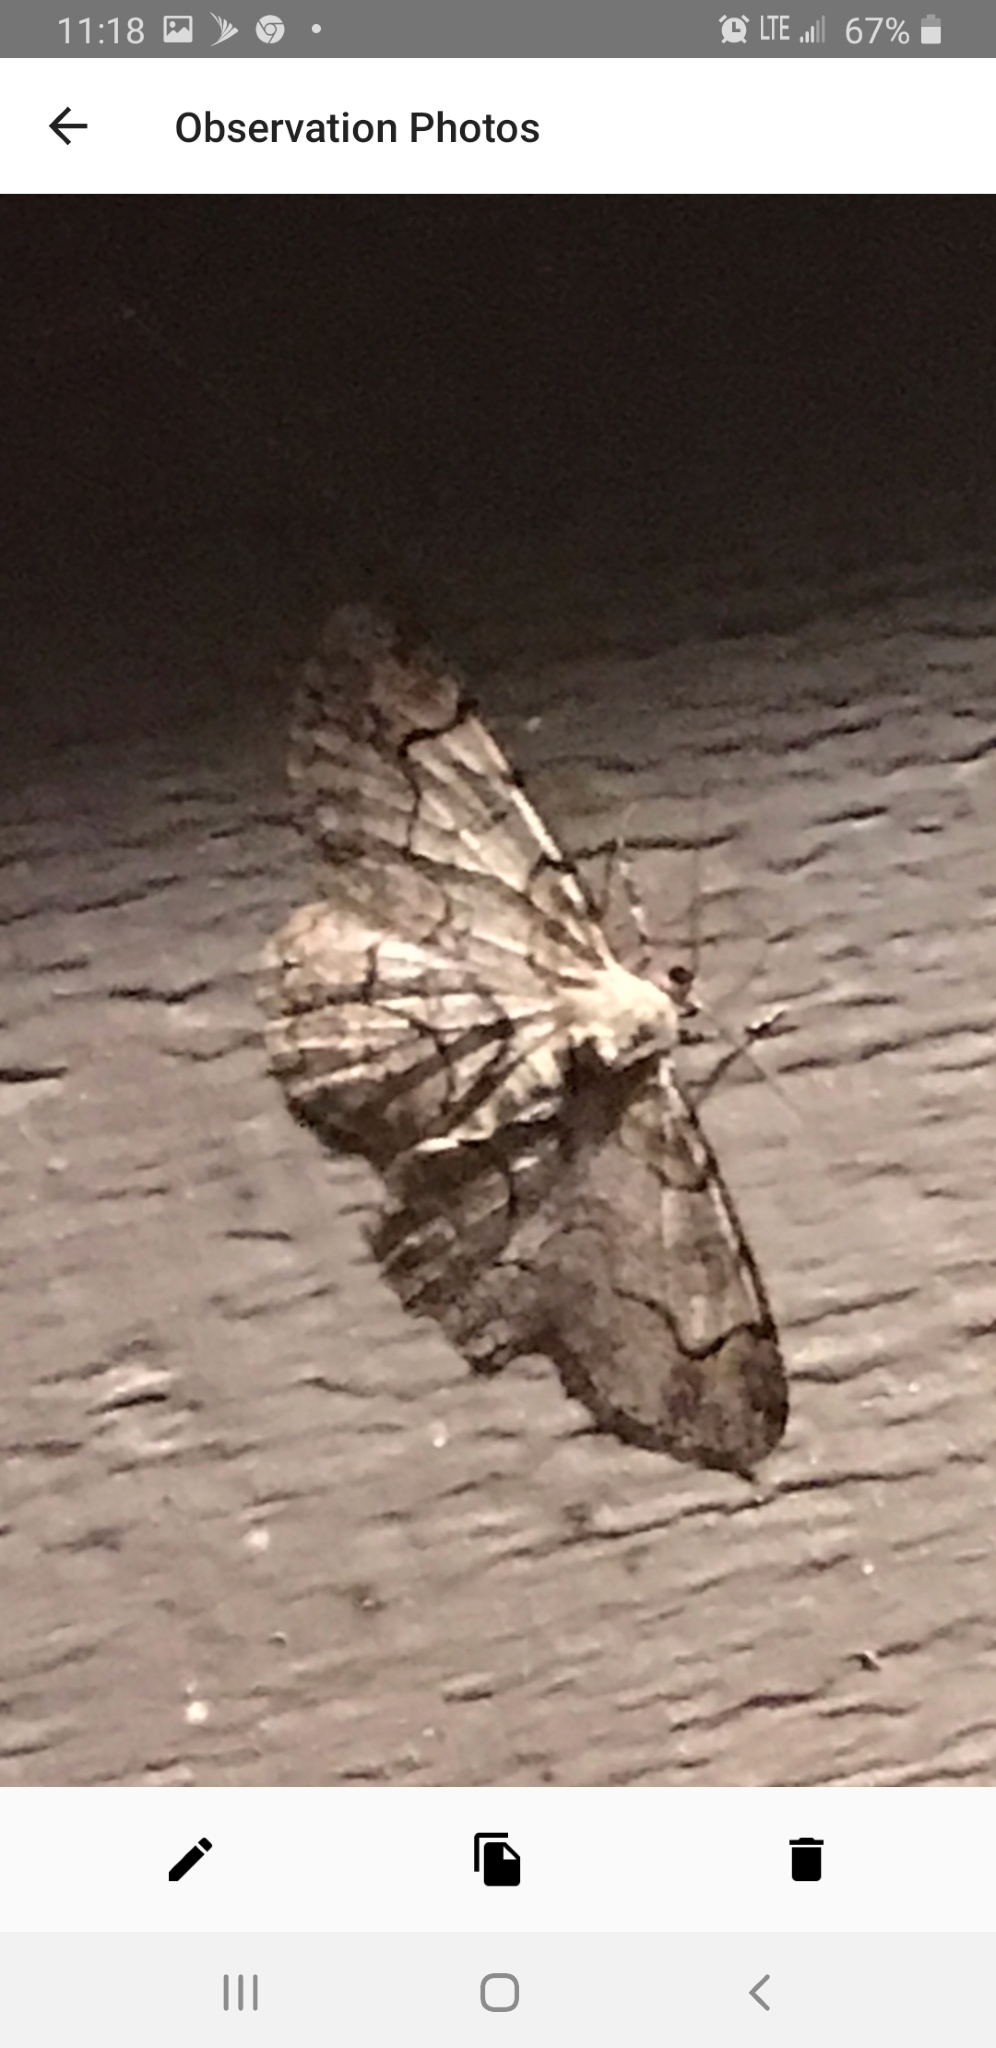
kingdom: Animalia
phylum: Arthropoda
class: Insecta
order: Lepidoptera
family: Geometridae
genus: Iridopsis
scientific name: Iridopsis larvaria
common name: Bent-line gray
